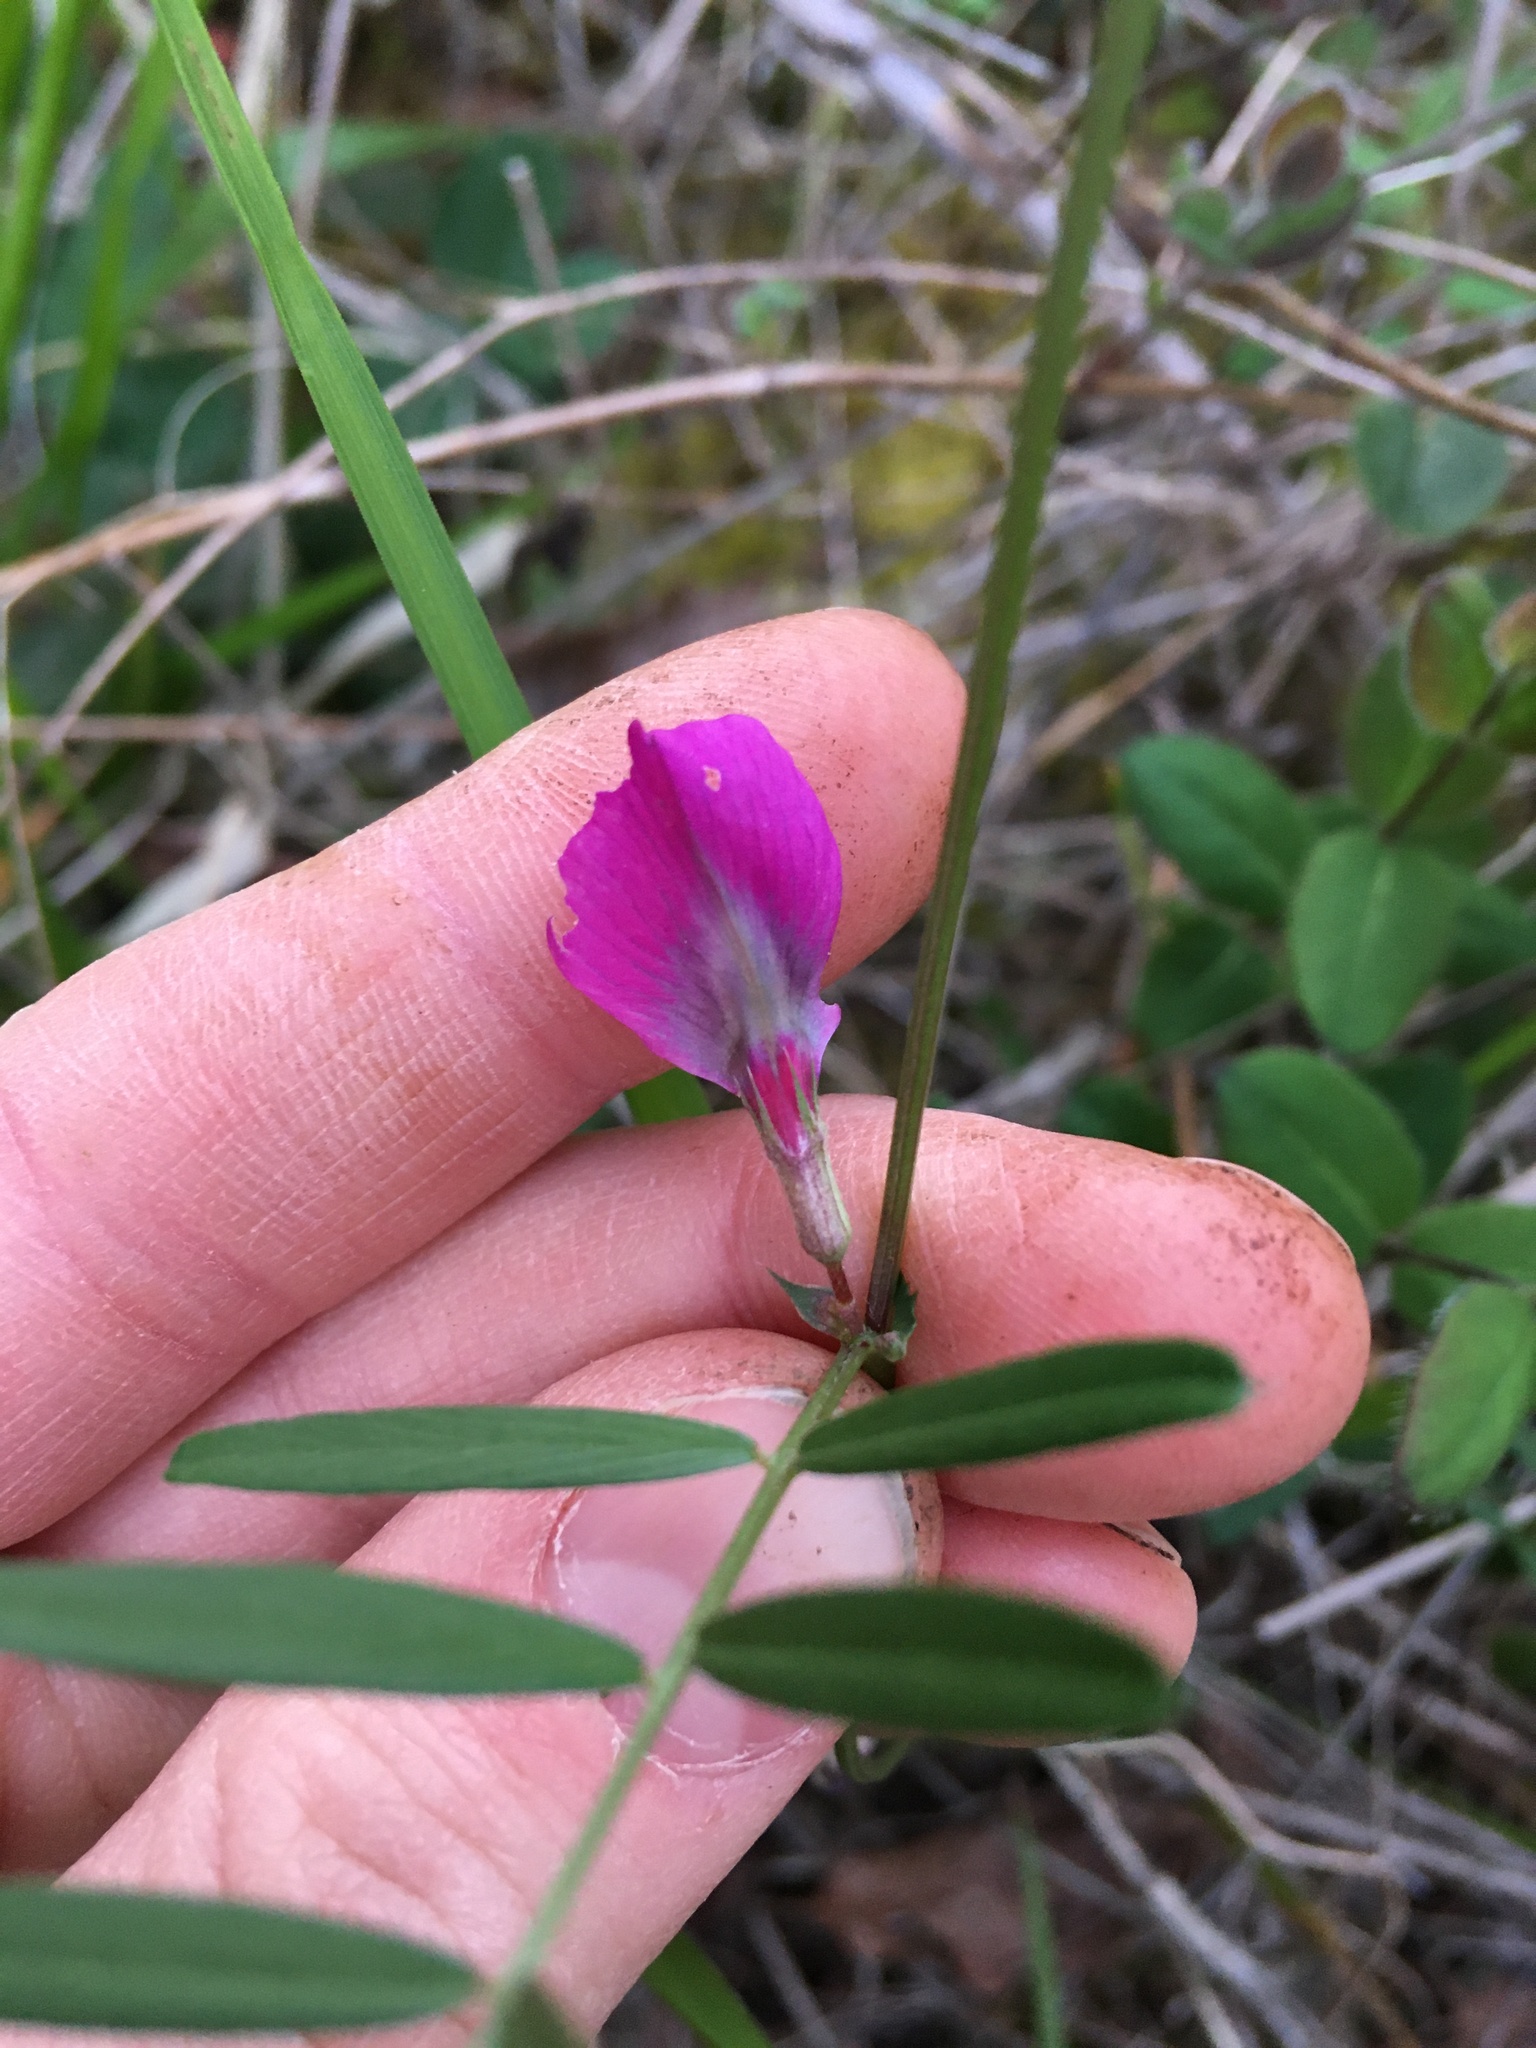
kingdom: Plantae
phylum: Tracheophyta
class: Magnoliopsida
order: Fabales
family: Fabaceae
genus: Vicia
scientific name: Vicia sativa
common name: Garden vetch
